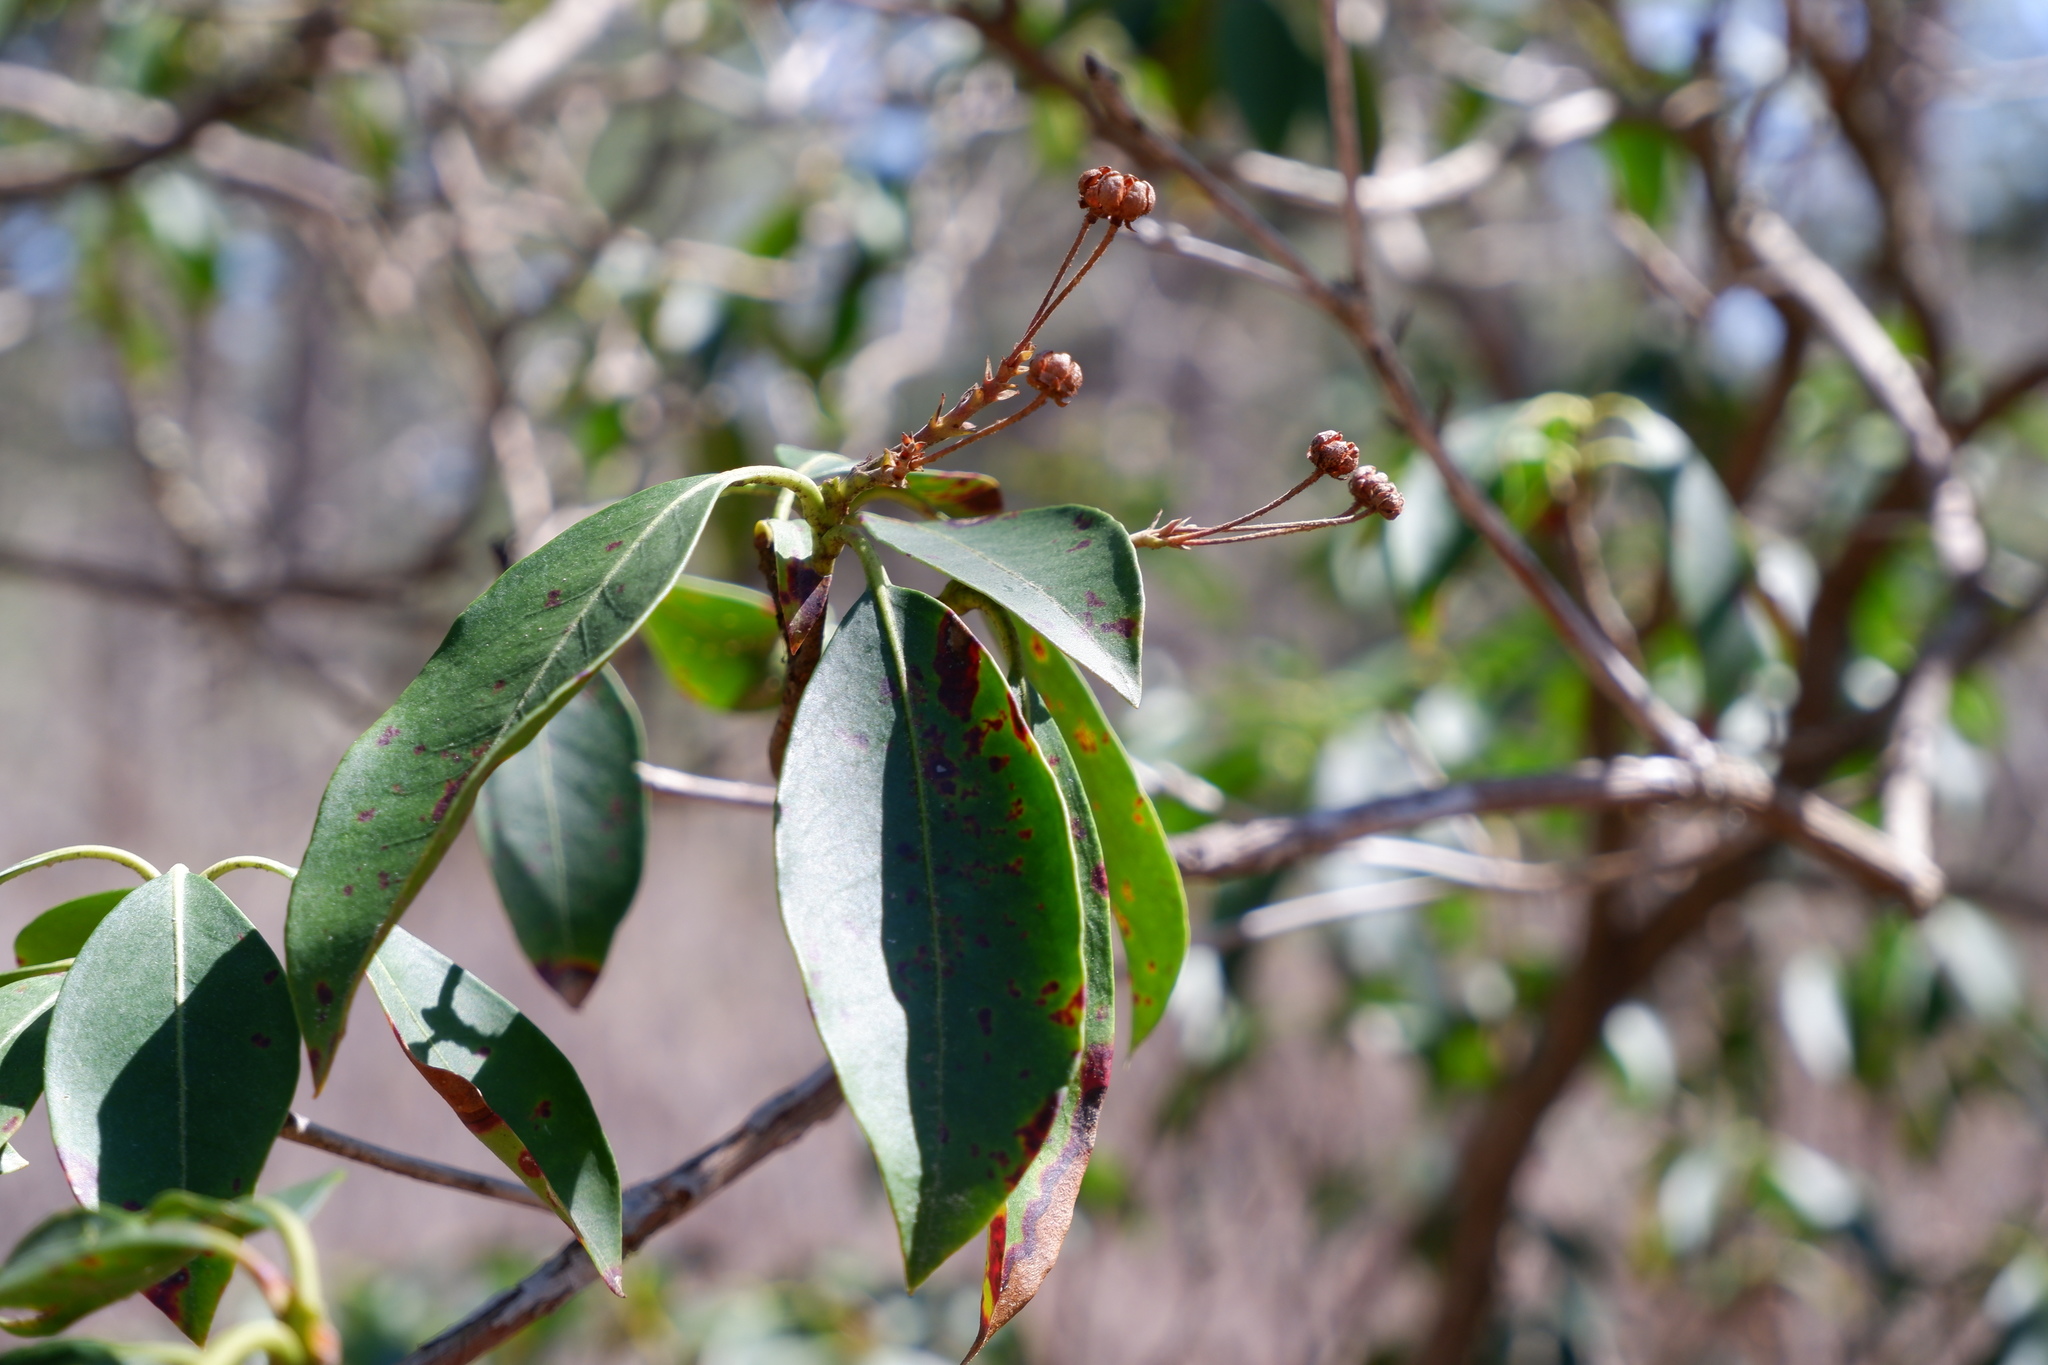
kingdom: Plantae
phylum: Tracheophyta
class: Magnoliopsida
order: Ericales
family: Ericaceae
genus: Kalmia
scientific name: Kalmia latifolia
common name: Mountain-laurel
